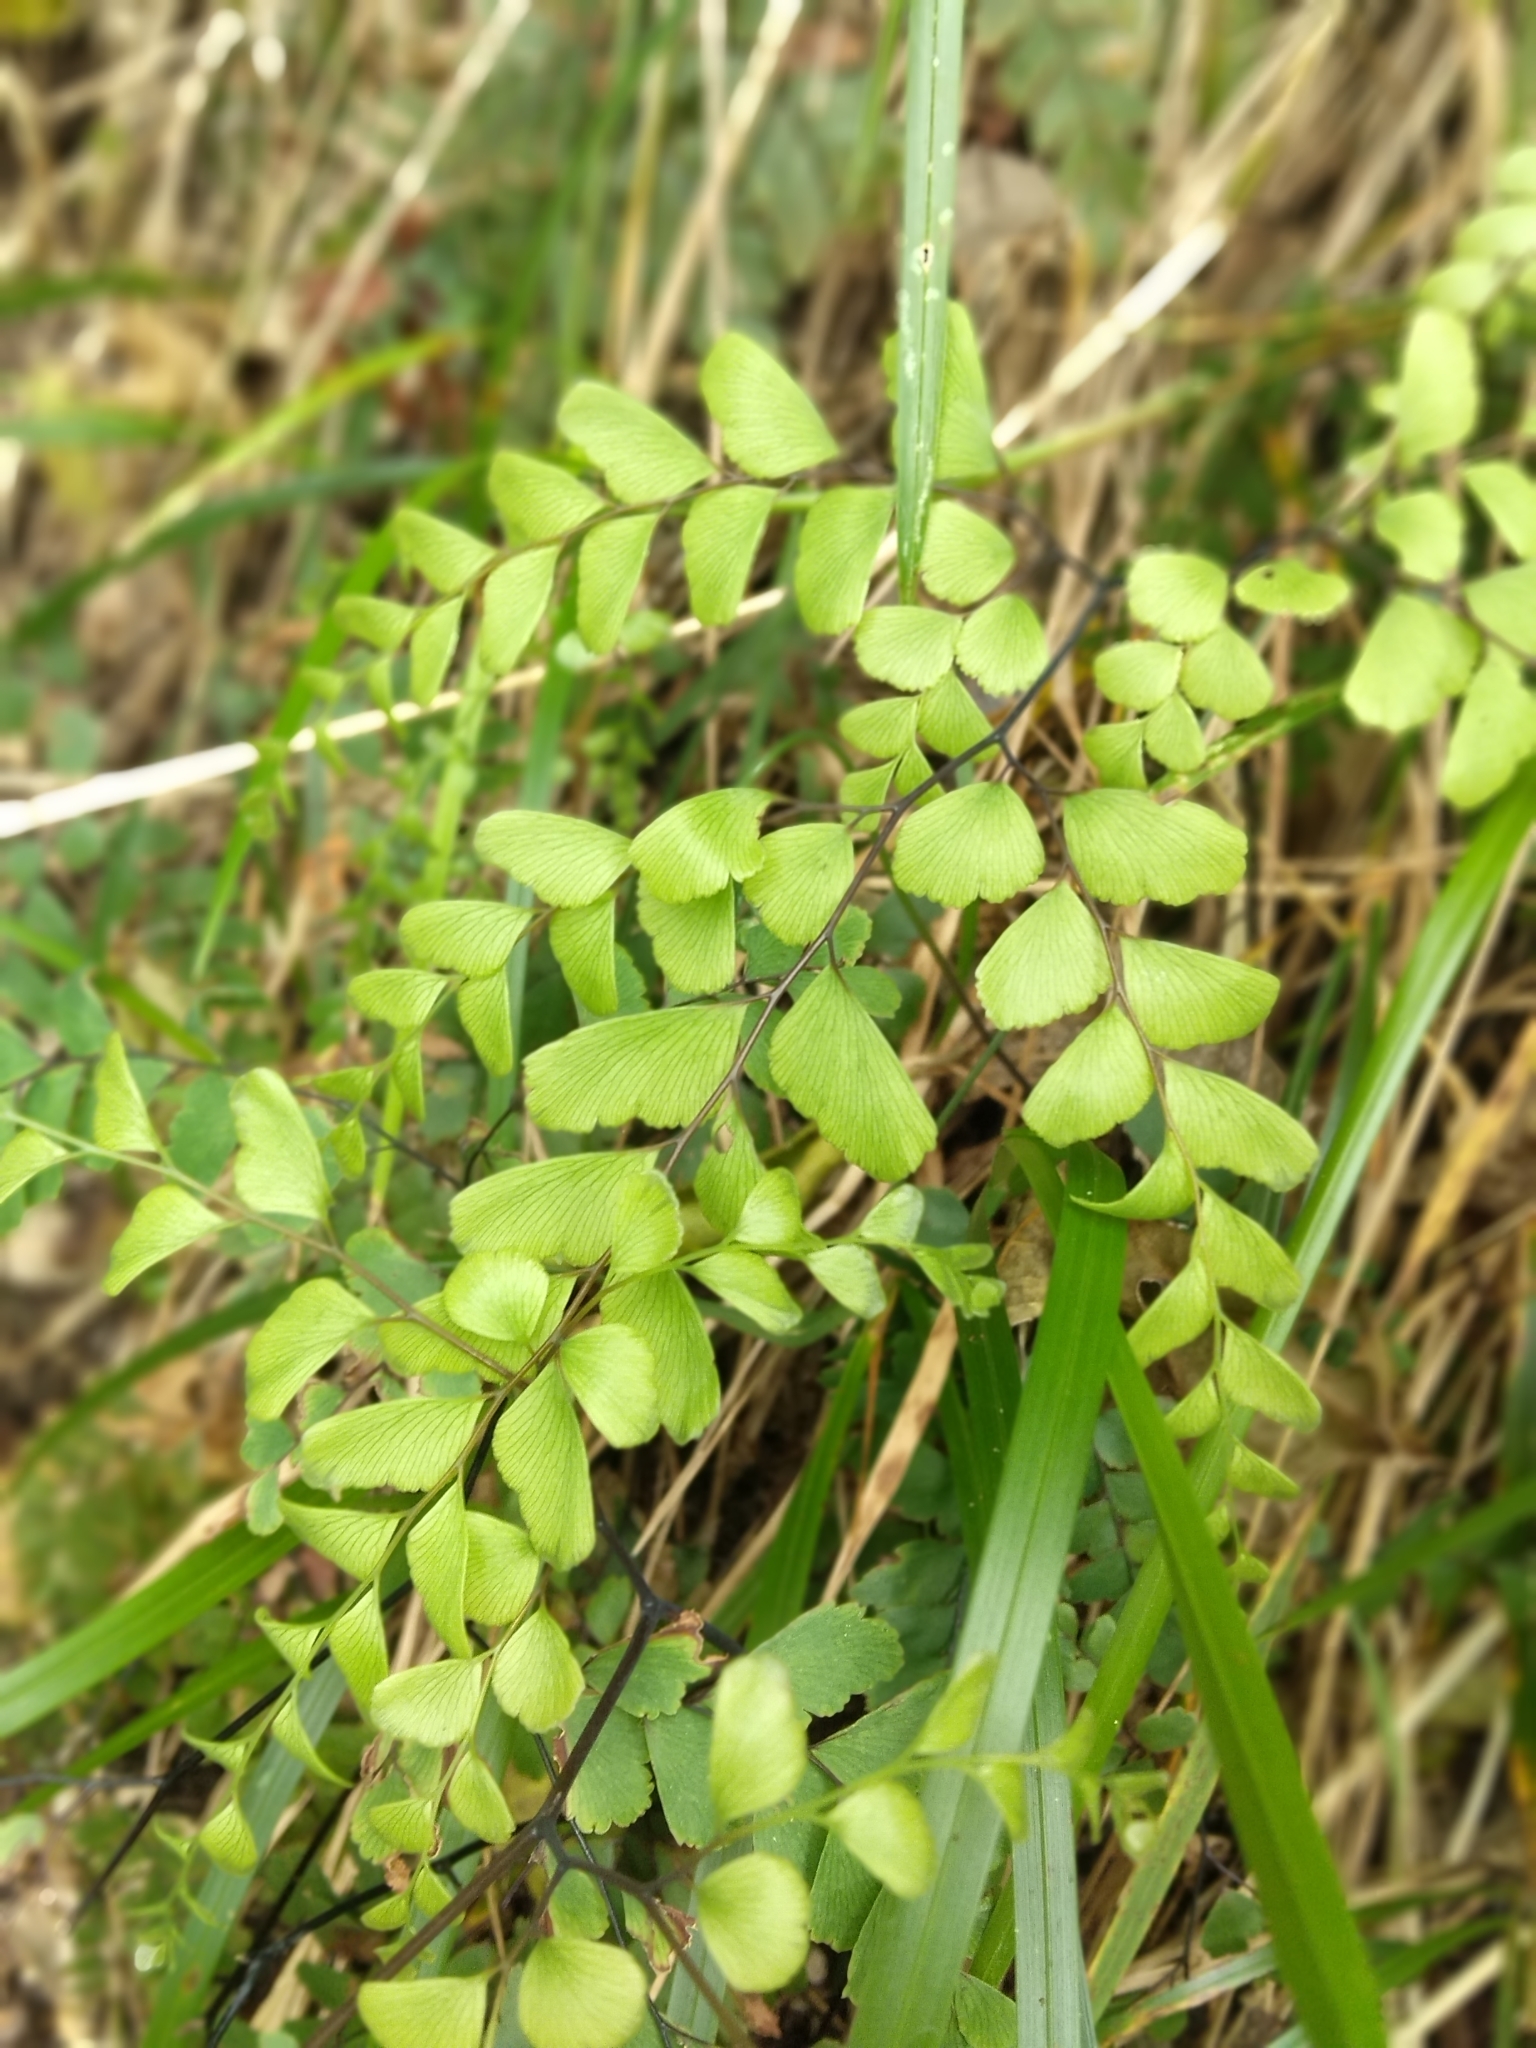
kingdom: Plantae
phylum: Tracheophyta
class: Polypodiopsida
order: Polypodiales
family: Pteridaceae
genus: Adiantum
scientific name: Adiantum cunninghamii
